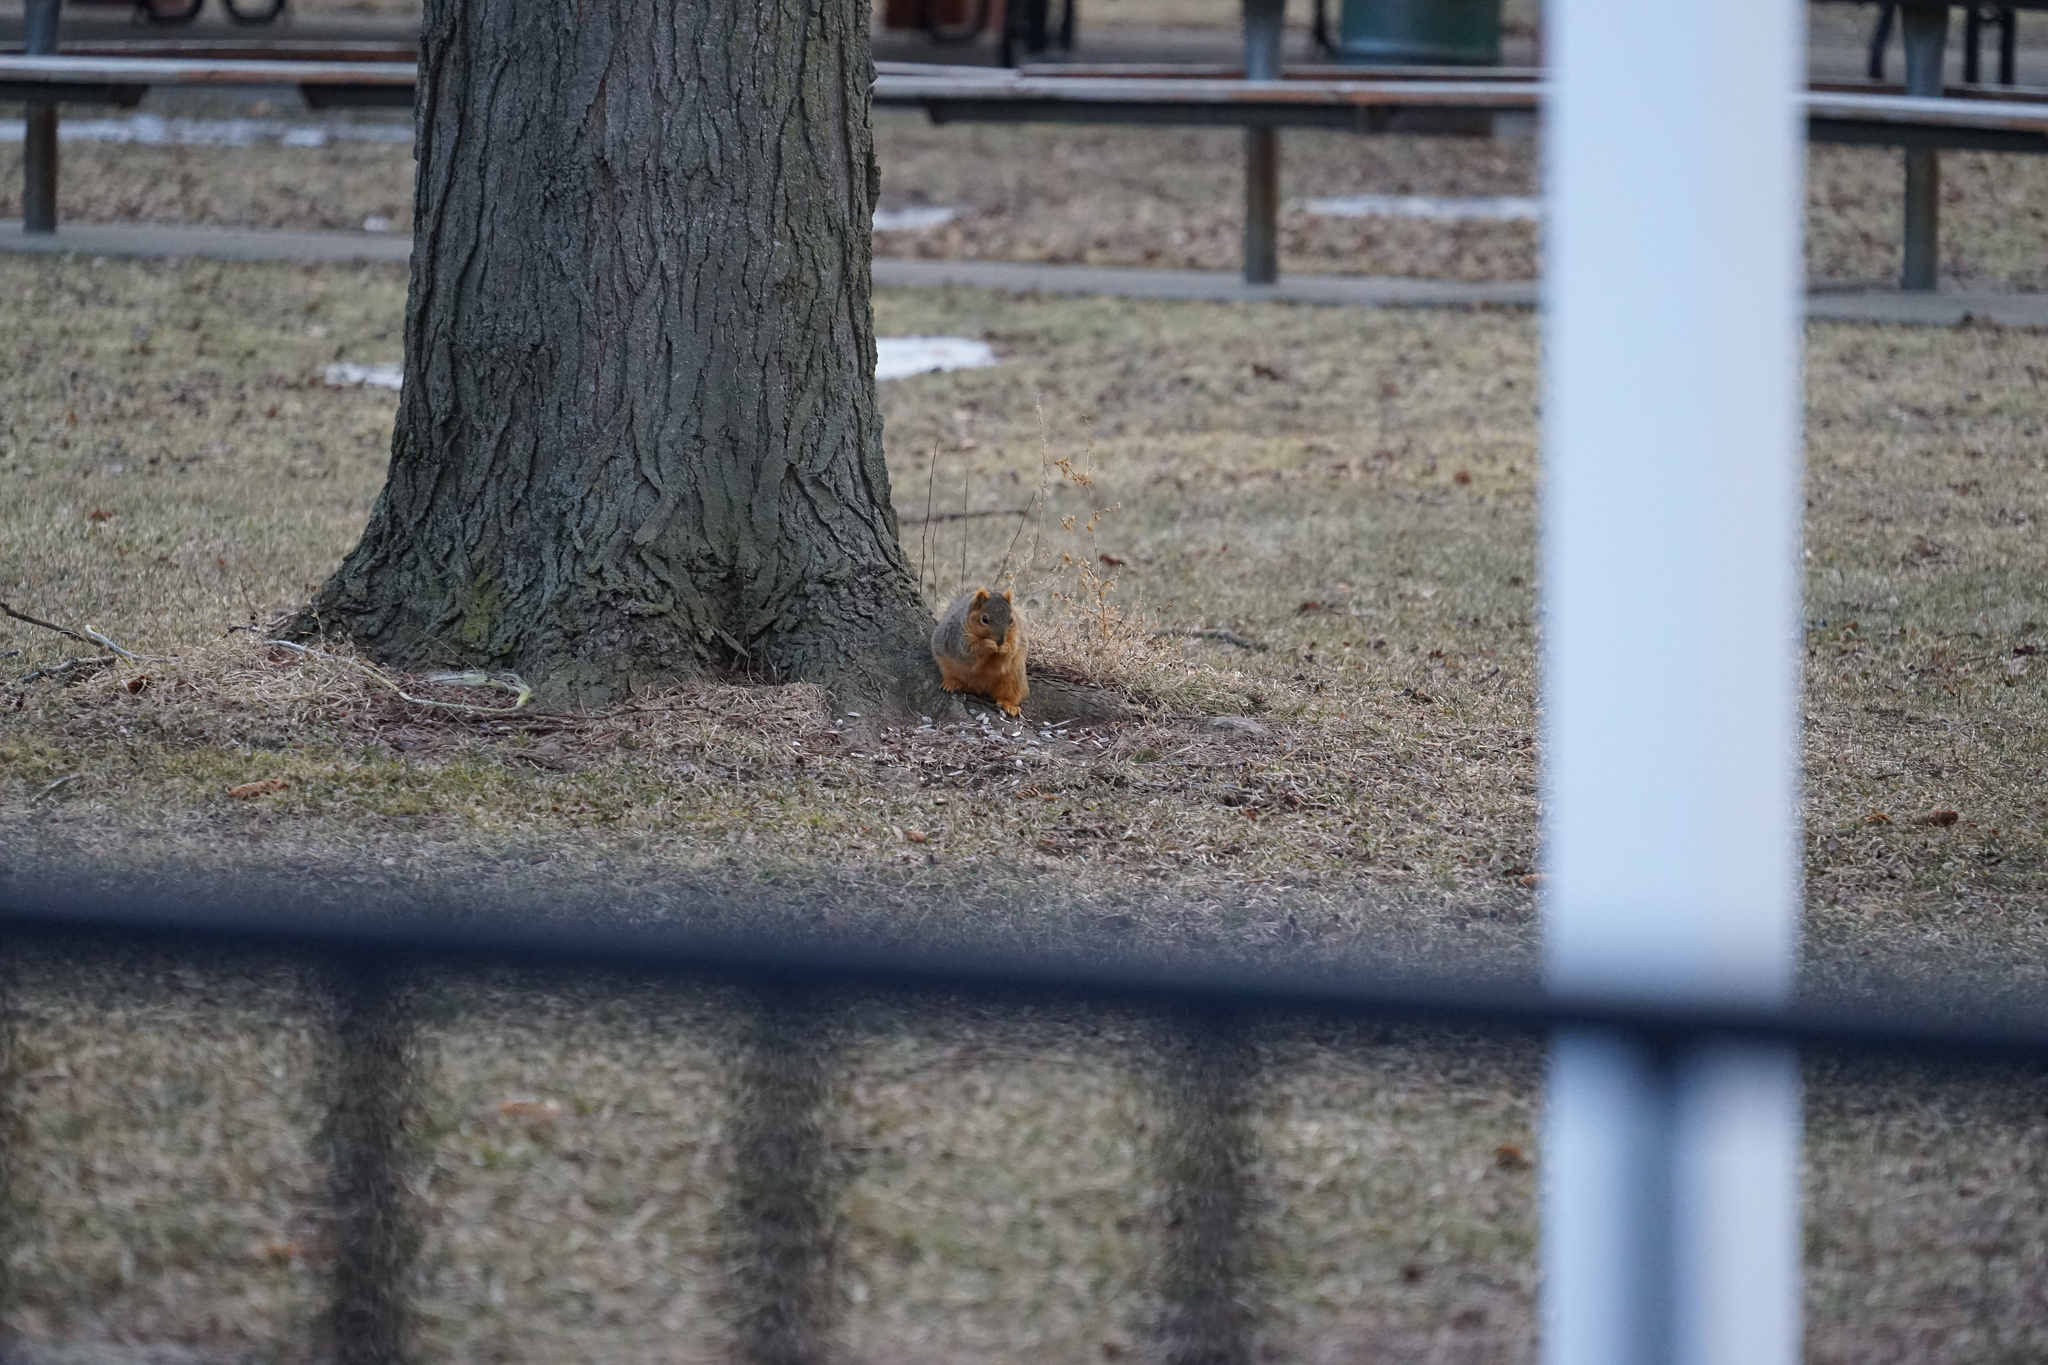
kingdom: Animalia
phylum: Chordata
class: Mammalia
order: Rodentia
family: Sciuridae
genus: Sciurus
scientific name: Sciurus niger
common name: Fox squirrel
